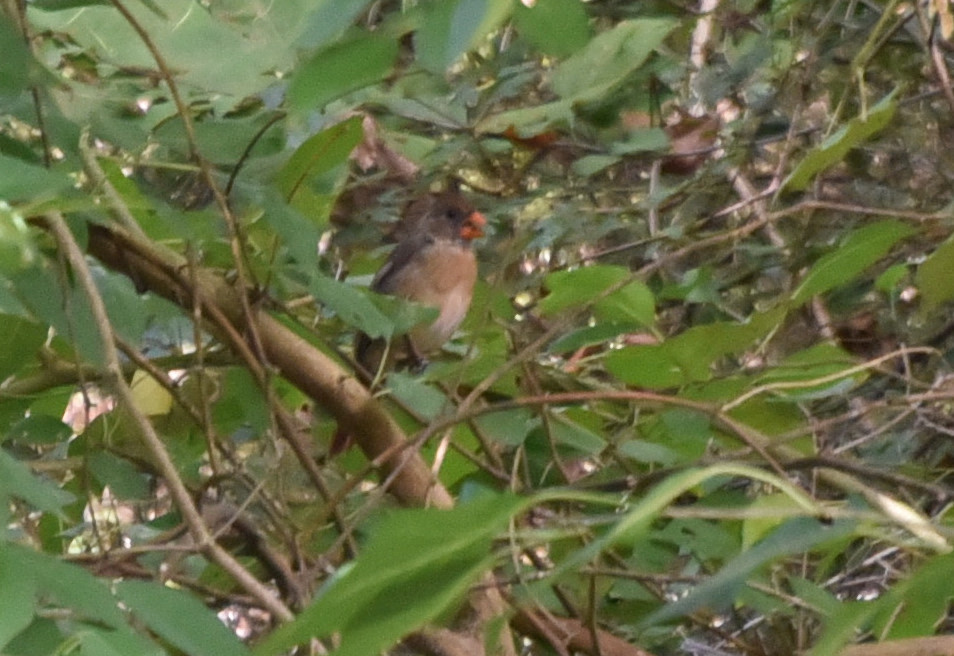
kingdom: Animalia
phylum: Chordata
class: Aves
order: Passeriformes
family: Cardinalidae
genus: Cardinalis
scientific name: Cardinalis cardinalis
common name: Northern cardinal
